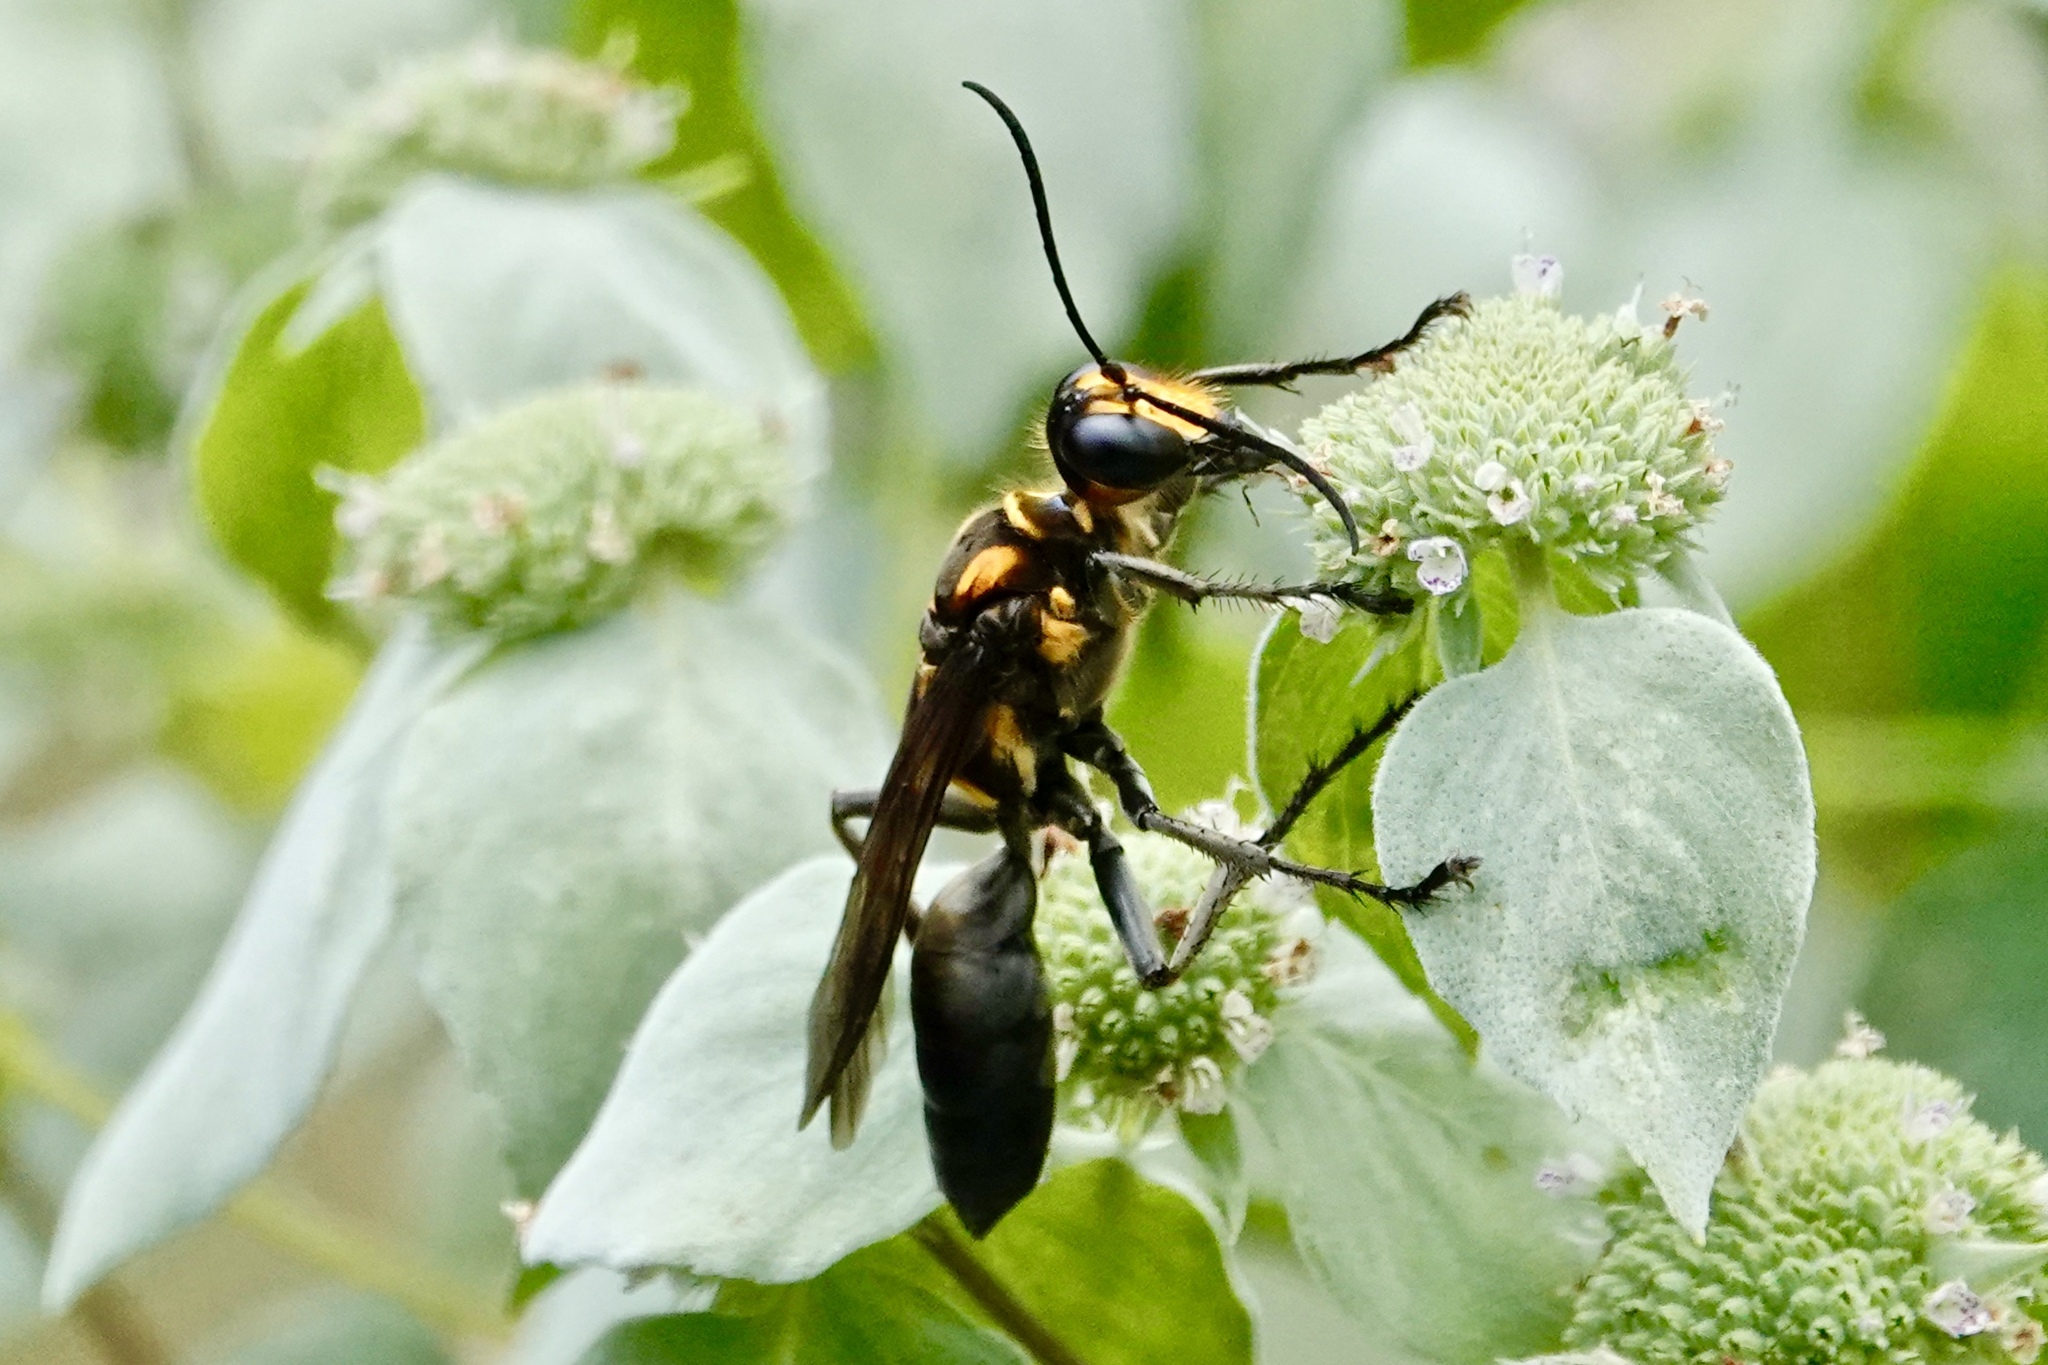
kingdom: Animalia
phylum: Arthropoda
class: Insecta
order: Hymenoptera
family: Sphecidae
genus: Sphex
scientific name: Sphex habenus
